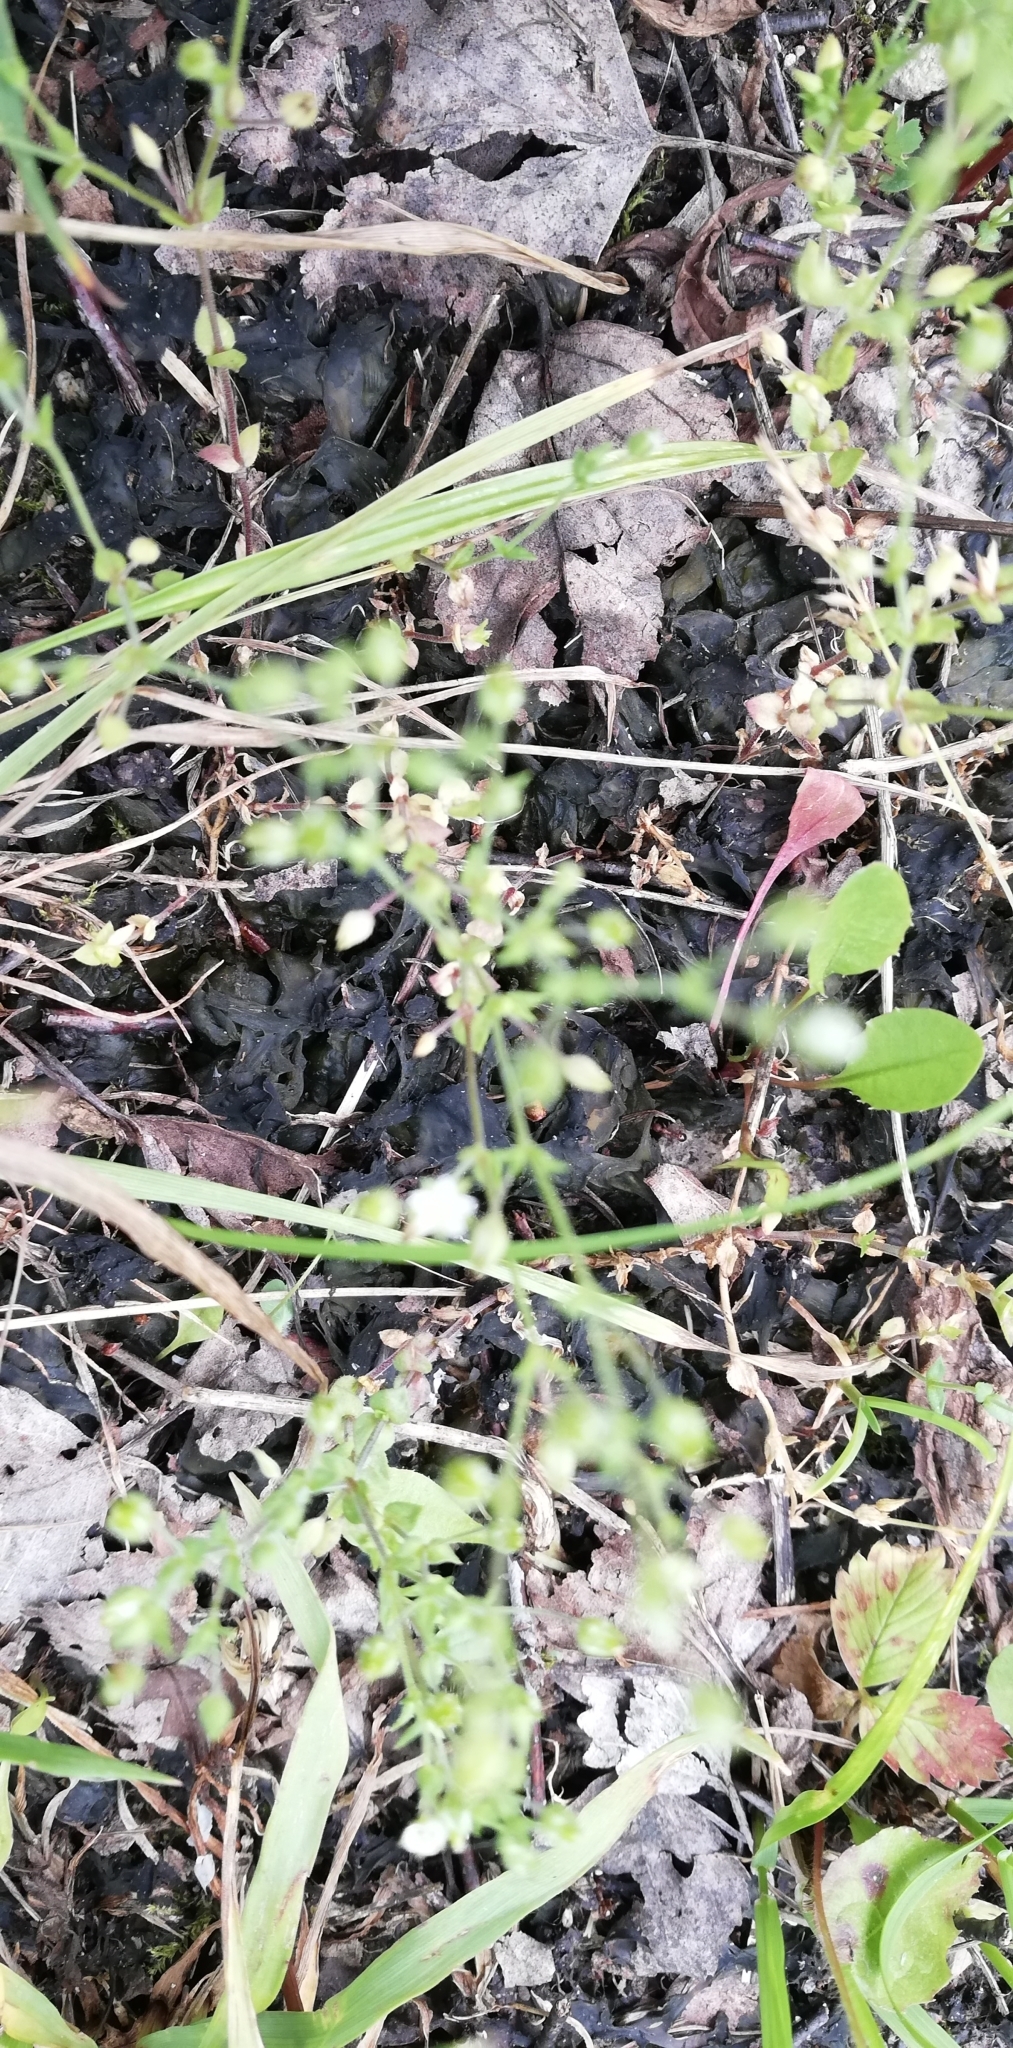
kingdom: Plantae
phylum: Tracheophyta
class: Magnoliopsida
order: Caryophyllales
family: Caryophyllaceae
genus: Arenaria
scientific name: Arenaria serpyllifolia
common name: Thyme-leaved sandwort
